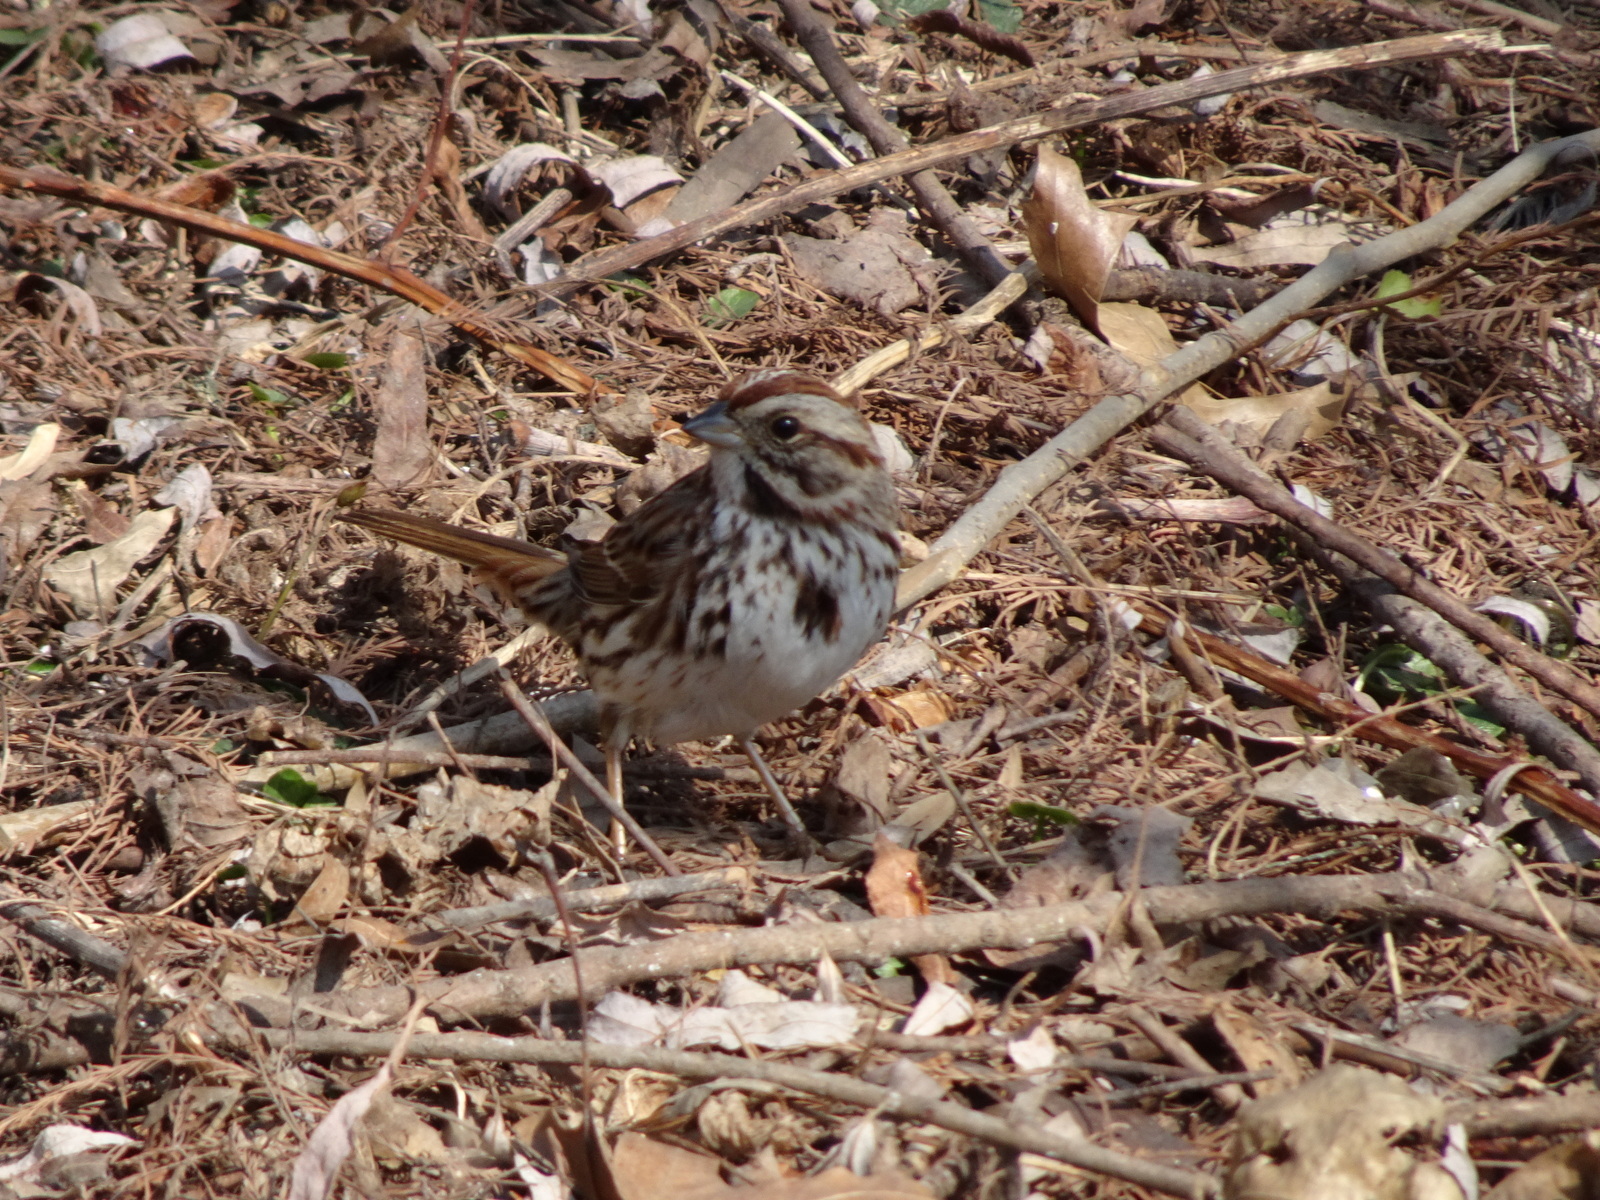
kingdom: Animalia
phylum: Chordata
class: Aves
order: Passeriformes
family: Passerellidae
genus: Melospiza
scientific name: Melospiza melodia
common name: Song sparrow
